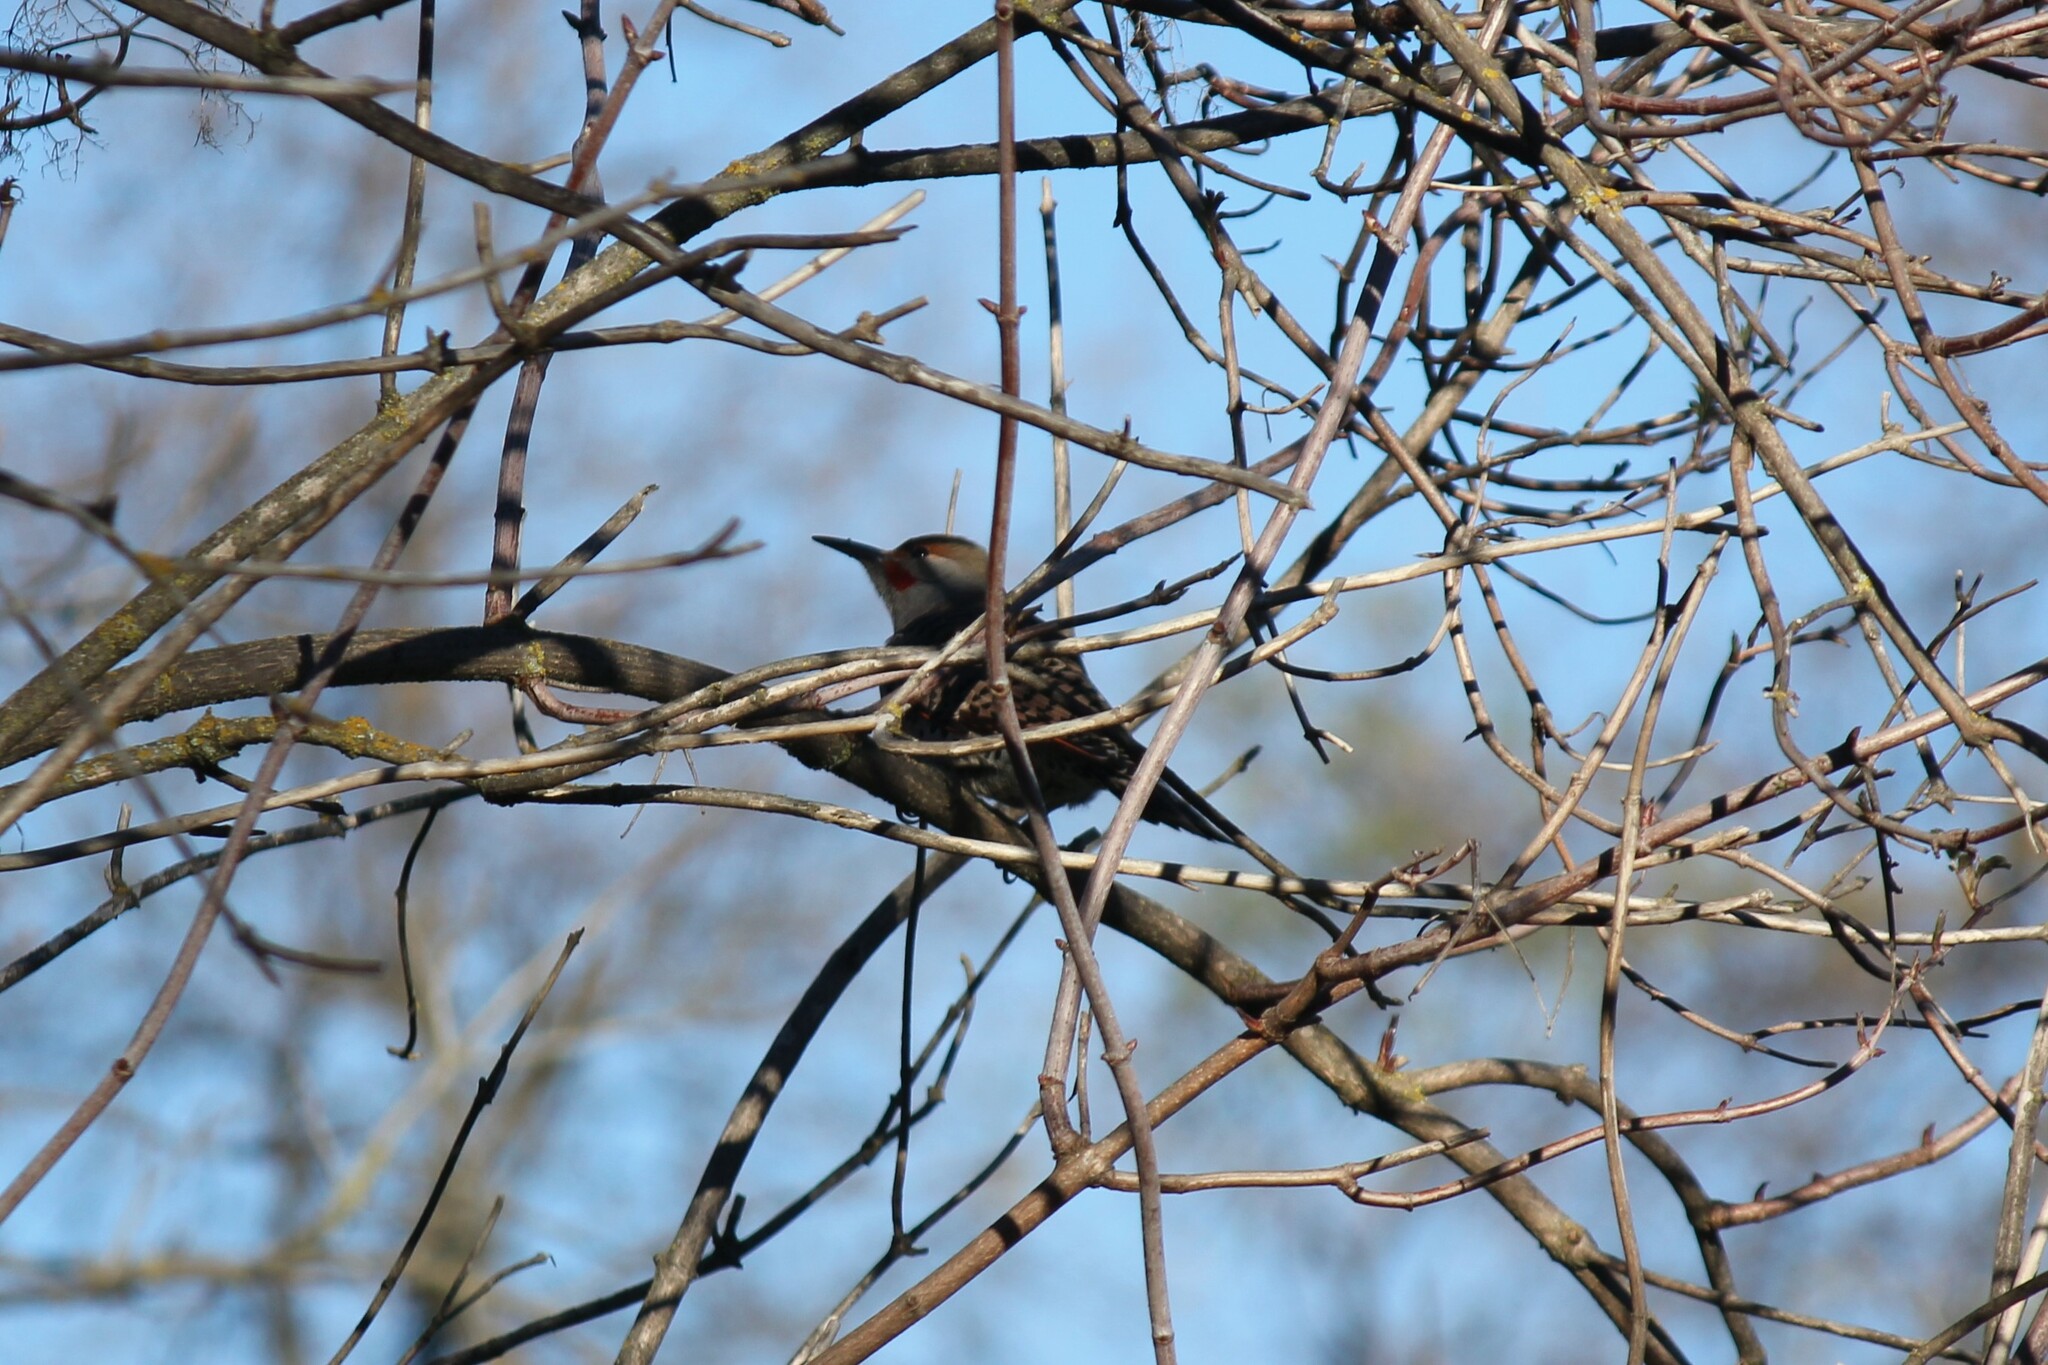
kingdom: Animalia
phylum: Chordata
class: Aves
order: Piciformes
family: Picidae
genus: Colaptes
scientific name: Colaptes auratus
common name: Northern flicker
